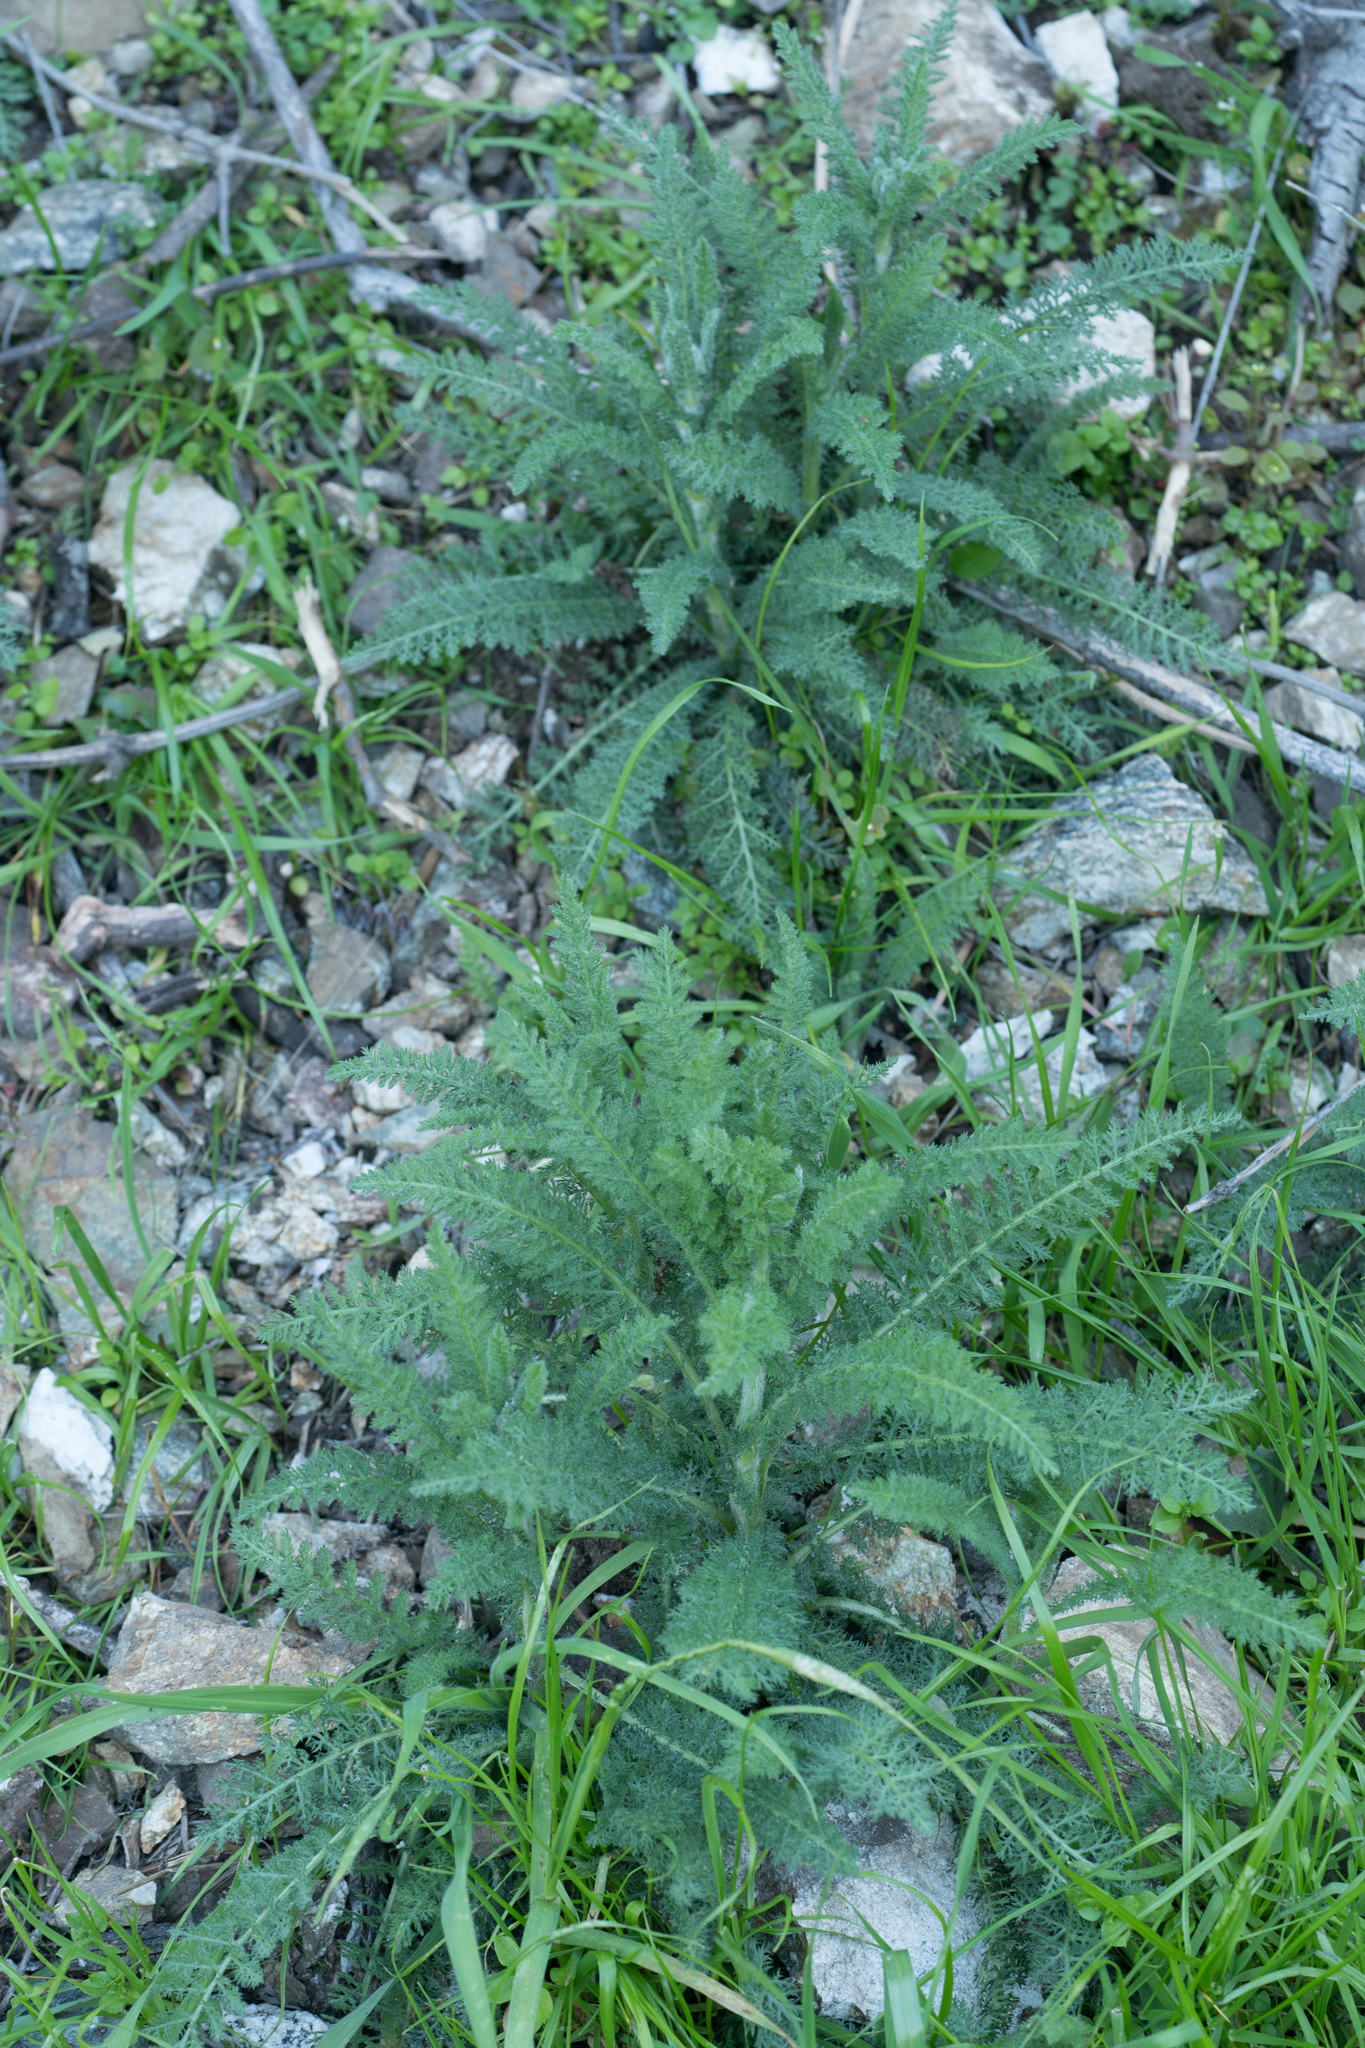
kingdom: Plantae
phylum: Tracheophyta
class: Magnoliopsida
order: Asterales
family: Asteraceae
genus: Achillea
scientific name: Achillea millefolium
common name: Yarrow
